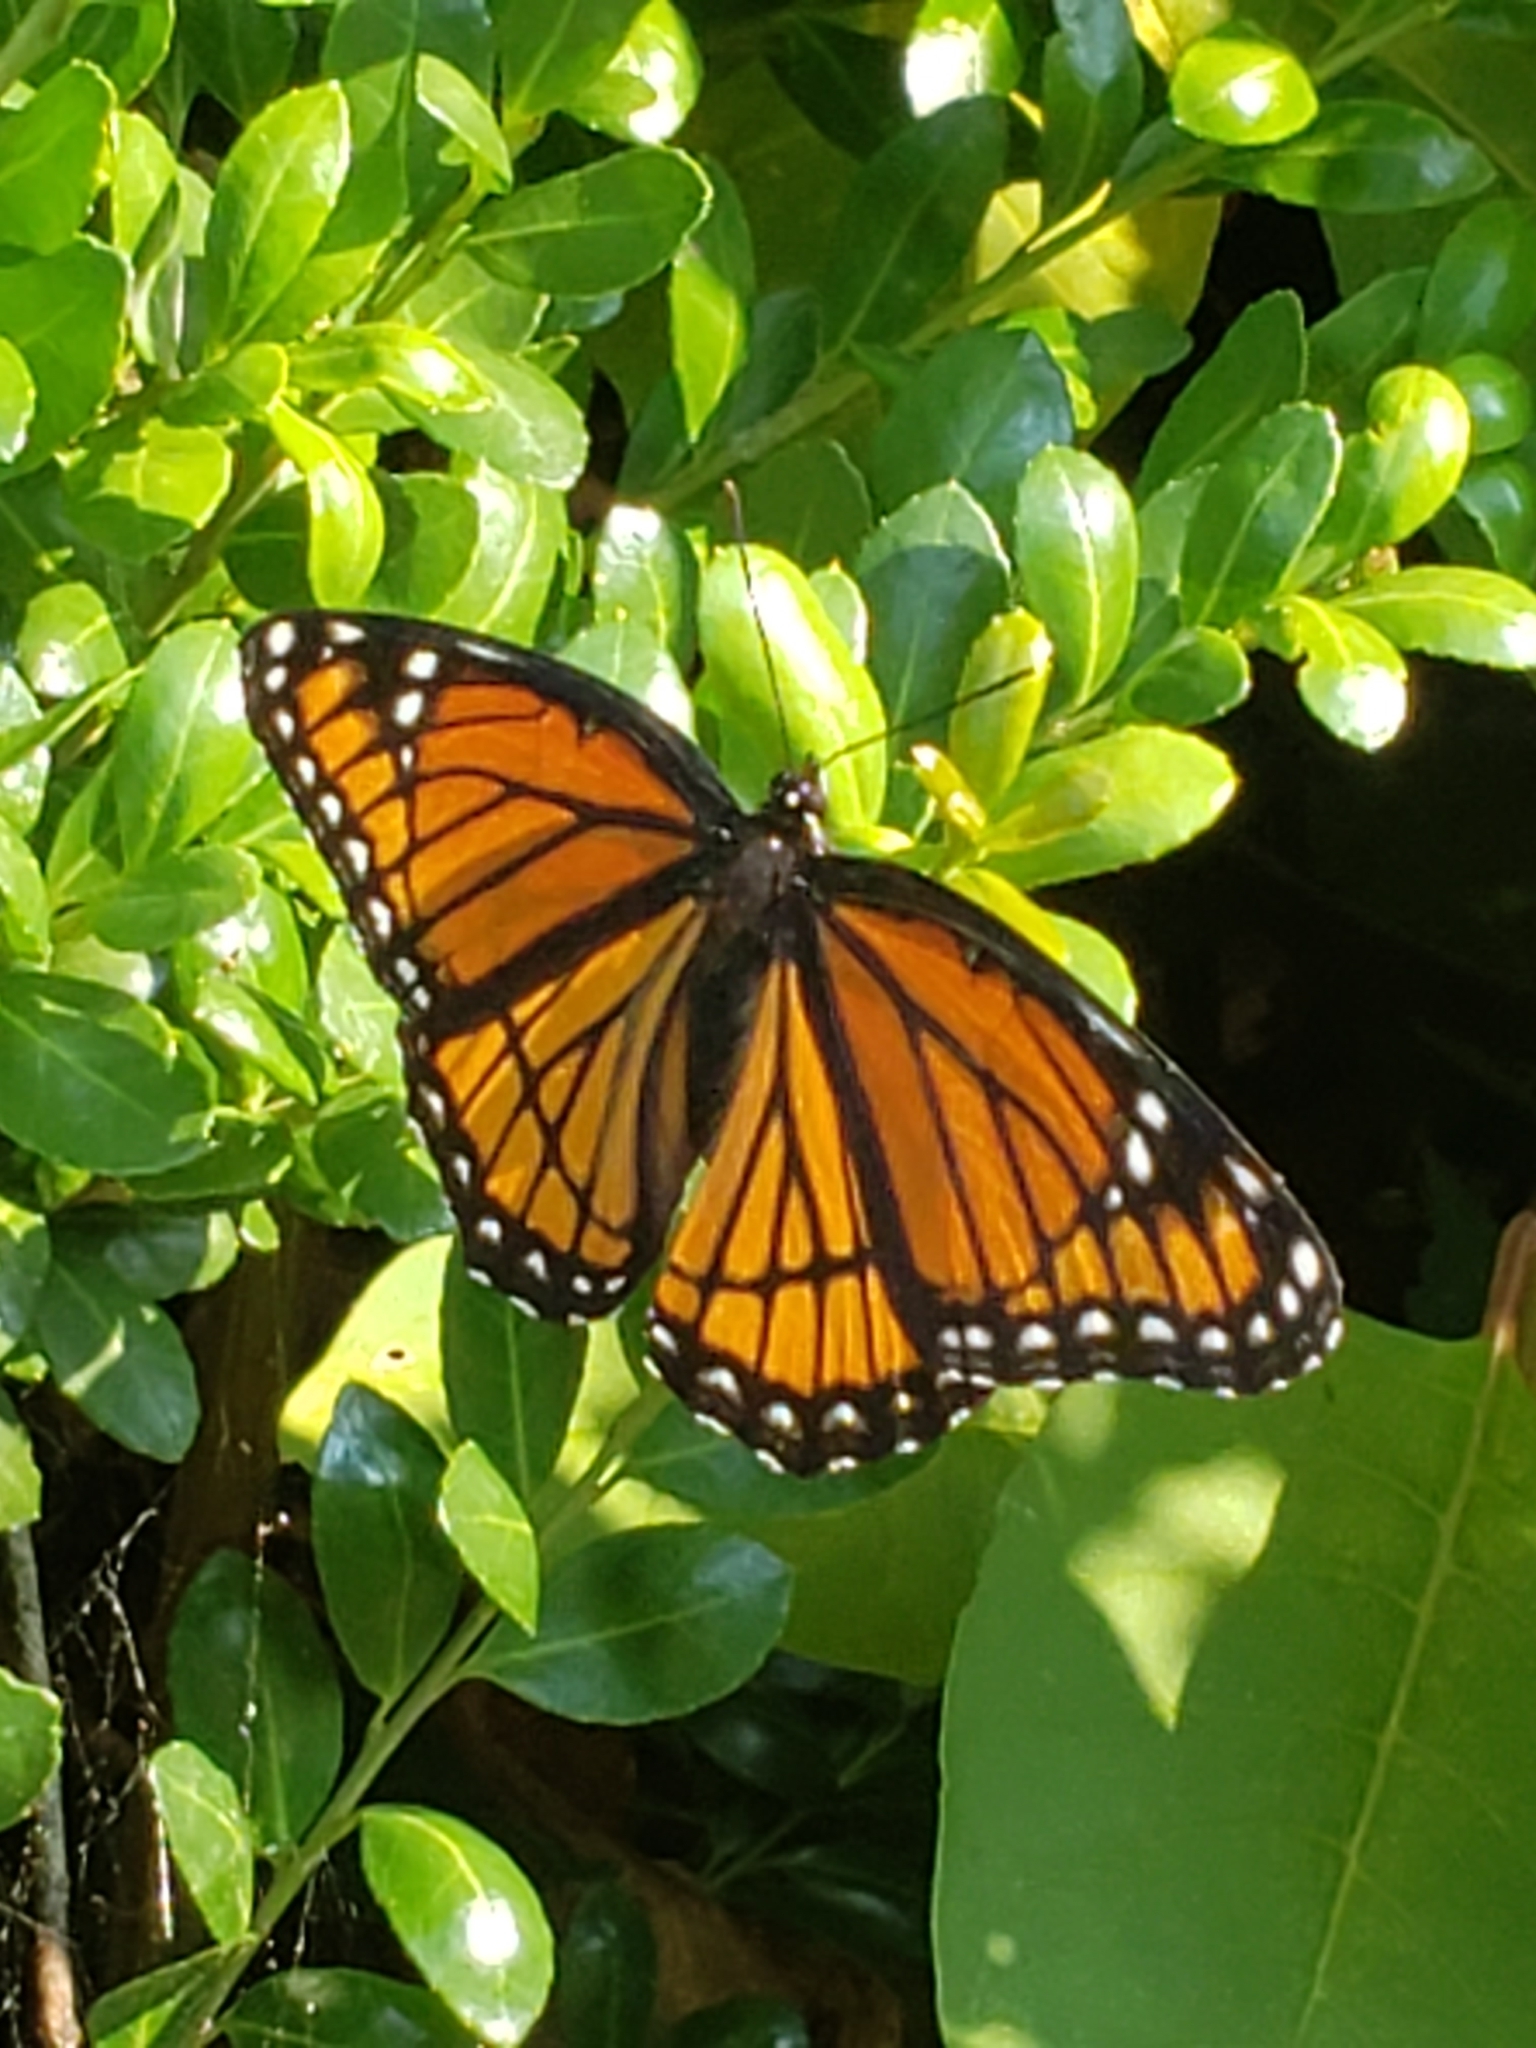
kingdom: Animalia
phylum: Arthropoda
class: Insecta
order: Lepidoptera
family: Nymphalidae
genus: Limenitis
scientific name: Limenitis archippus
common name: Viceroy
